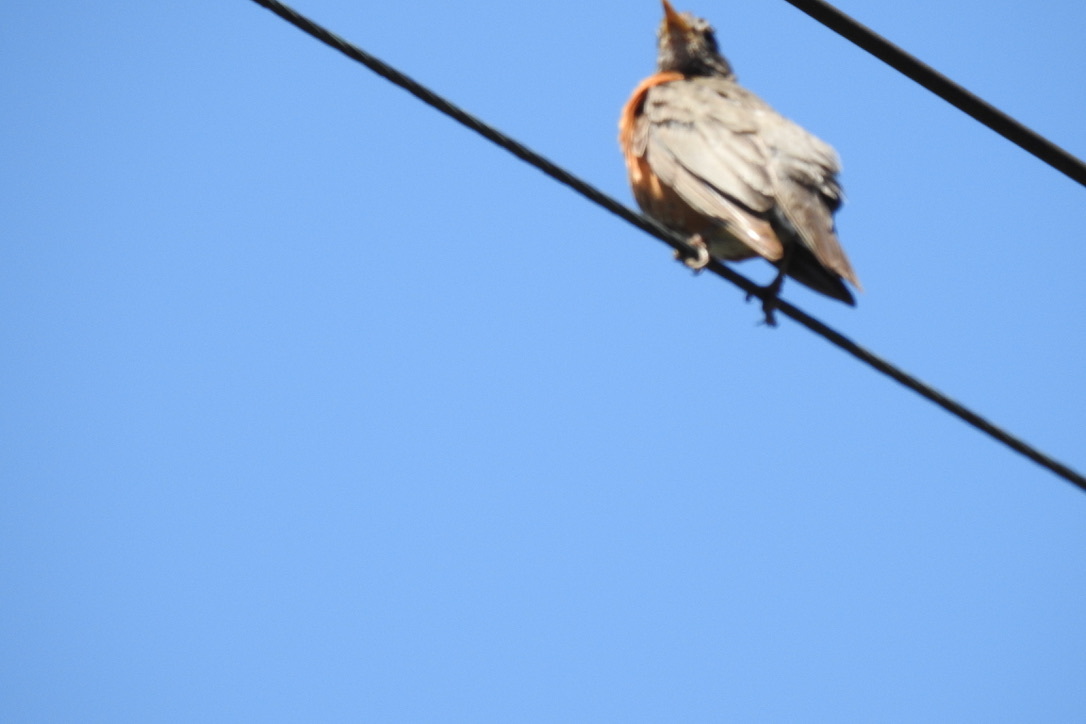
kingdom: Animalia
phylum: Chordata
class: Aves
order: Passeriformes
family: Turdidae
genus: Turdus
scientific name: Turdus migratorius
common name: American robin
